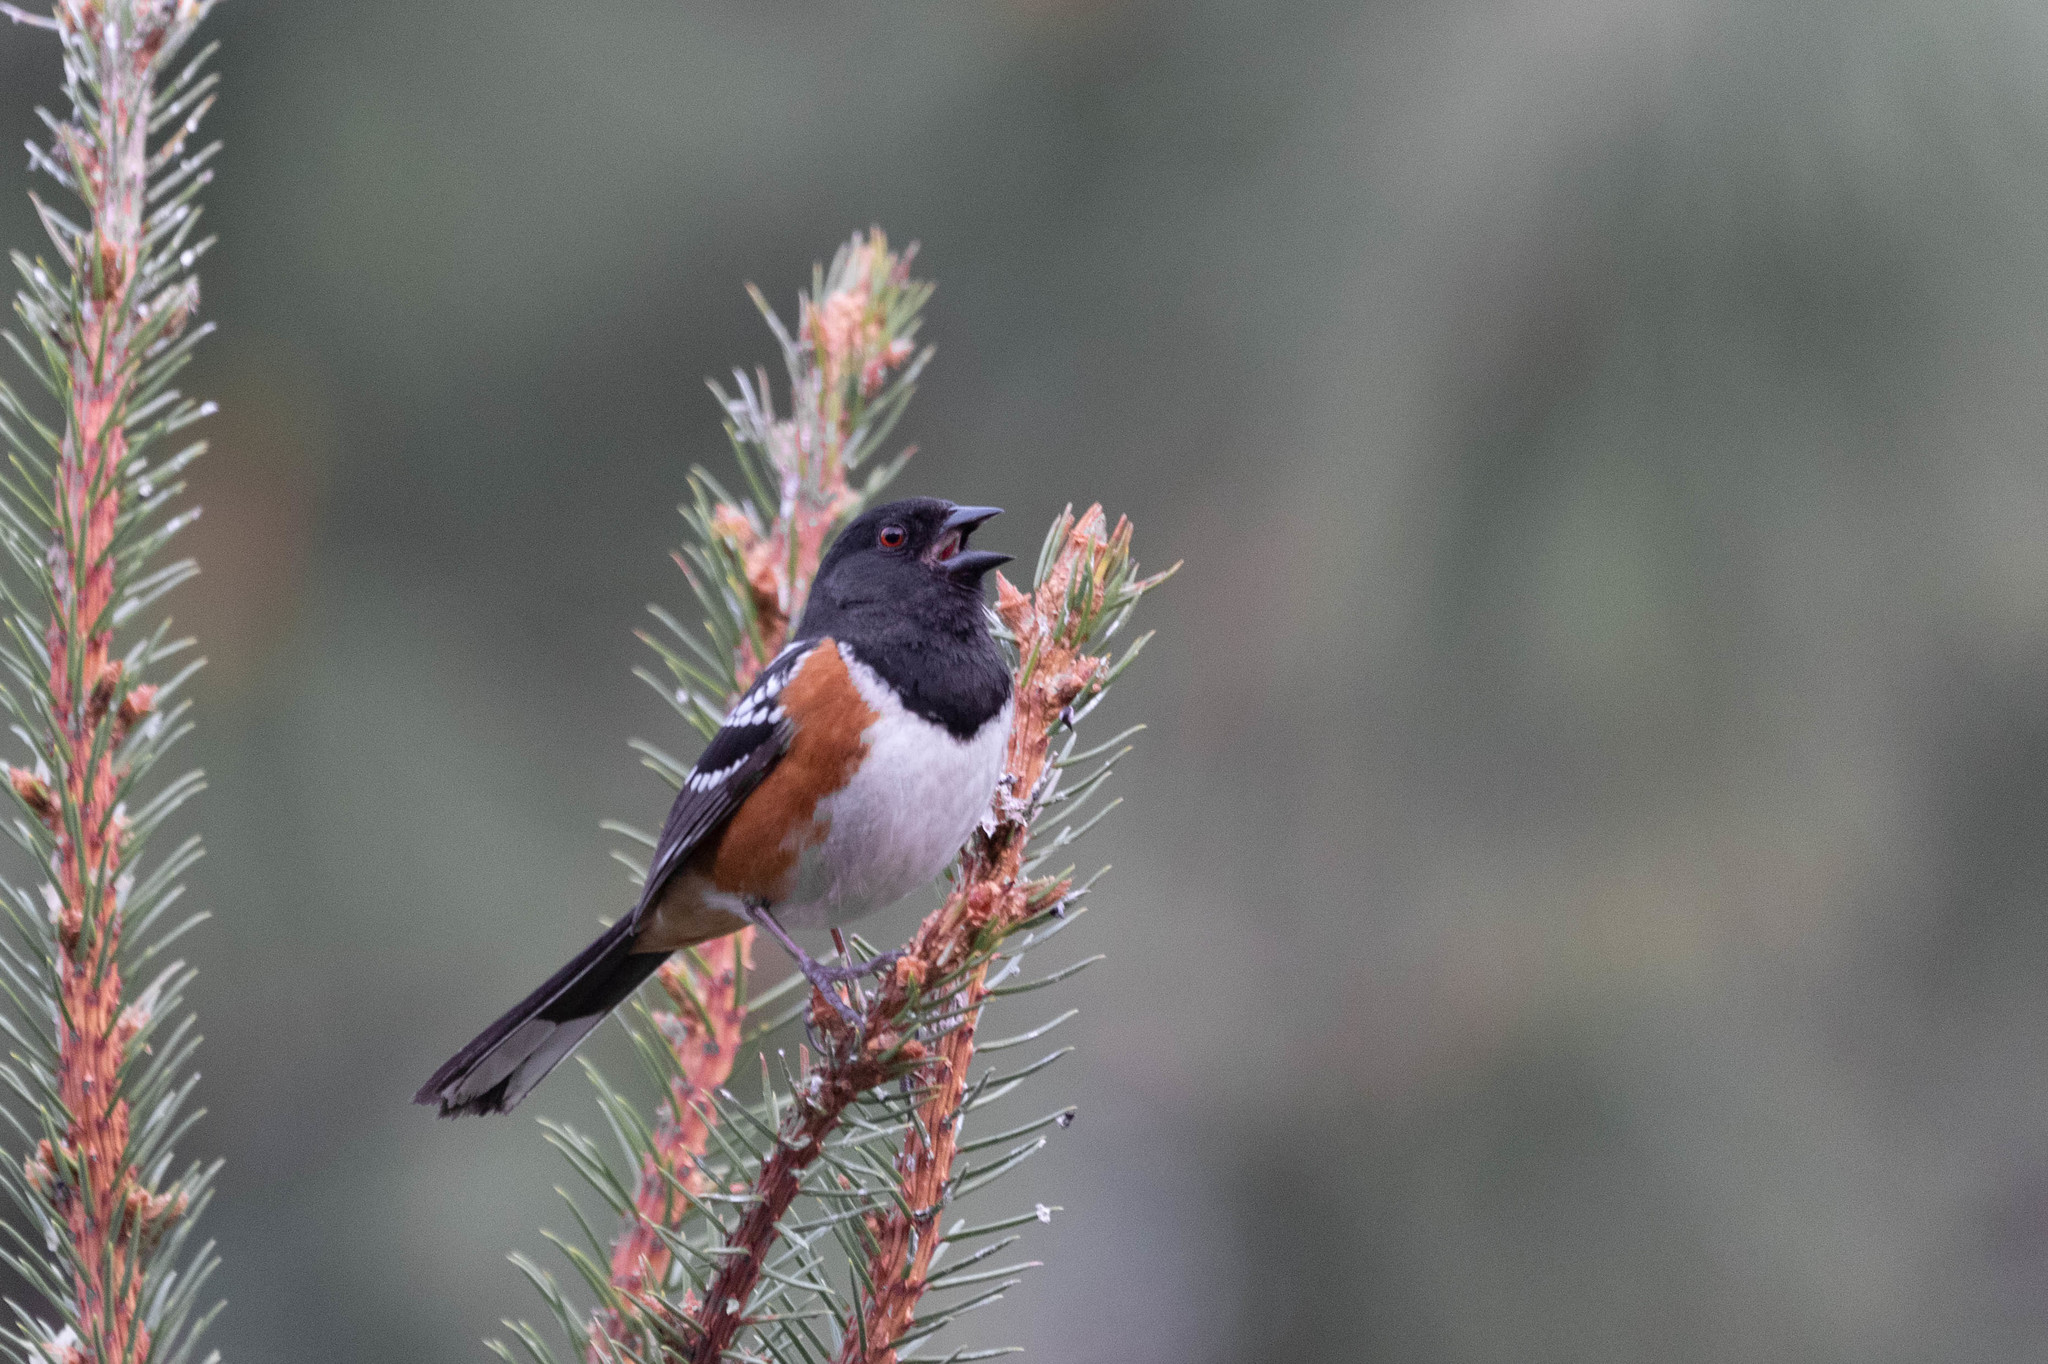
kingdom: Animalia
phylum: Chordata
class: Aves
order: Passeriformes
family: Passerellidae
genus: Pipilo
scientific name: Pipilo maculatus
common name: Spotted towhee
